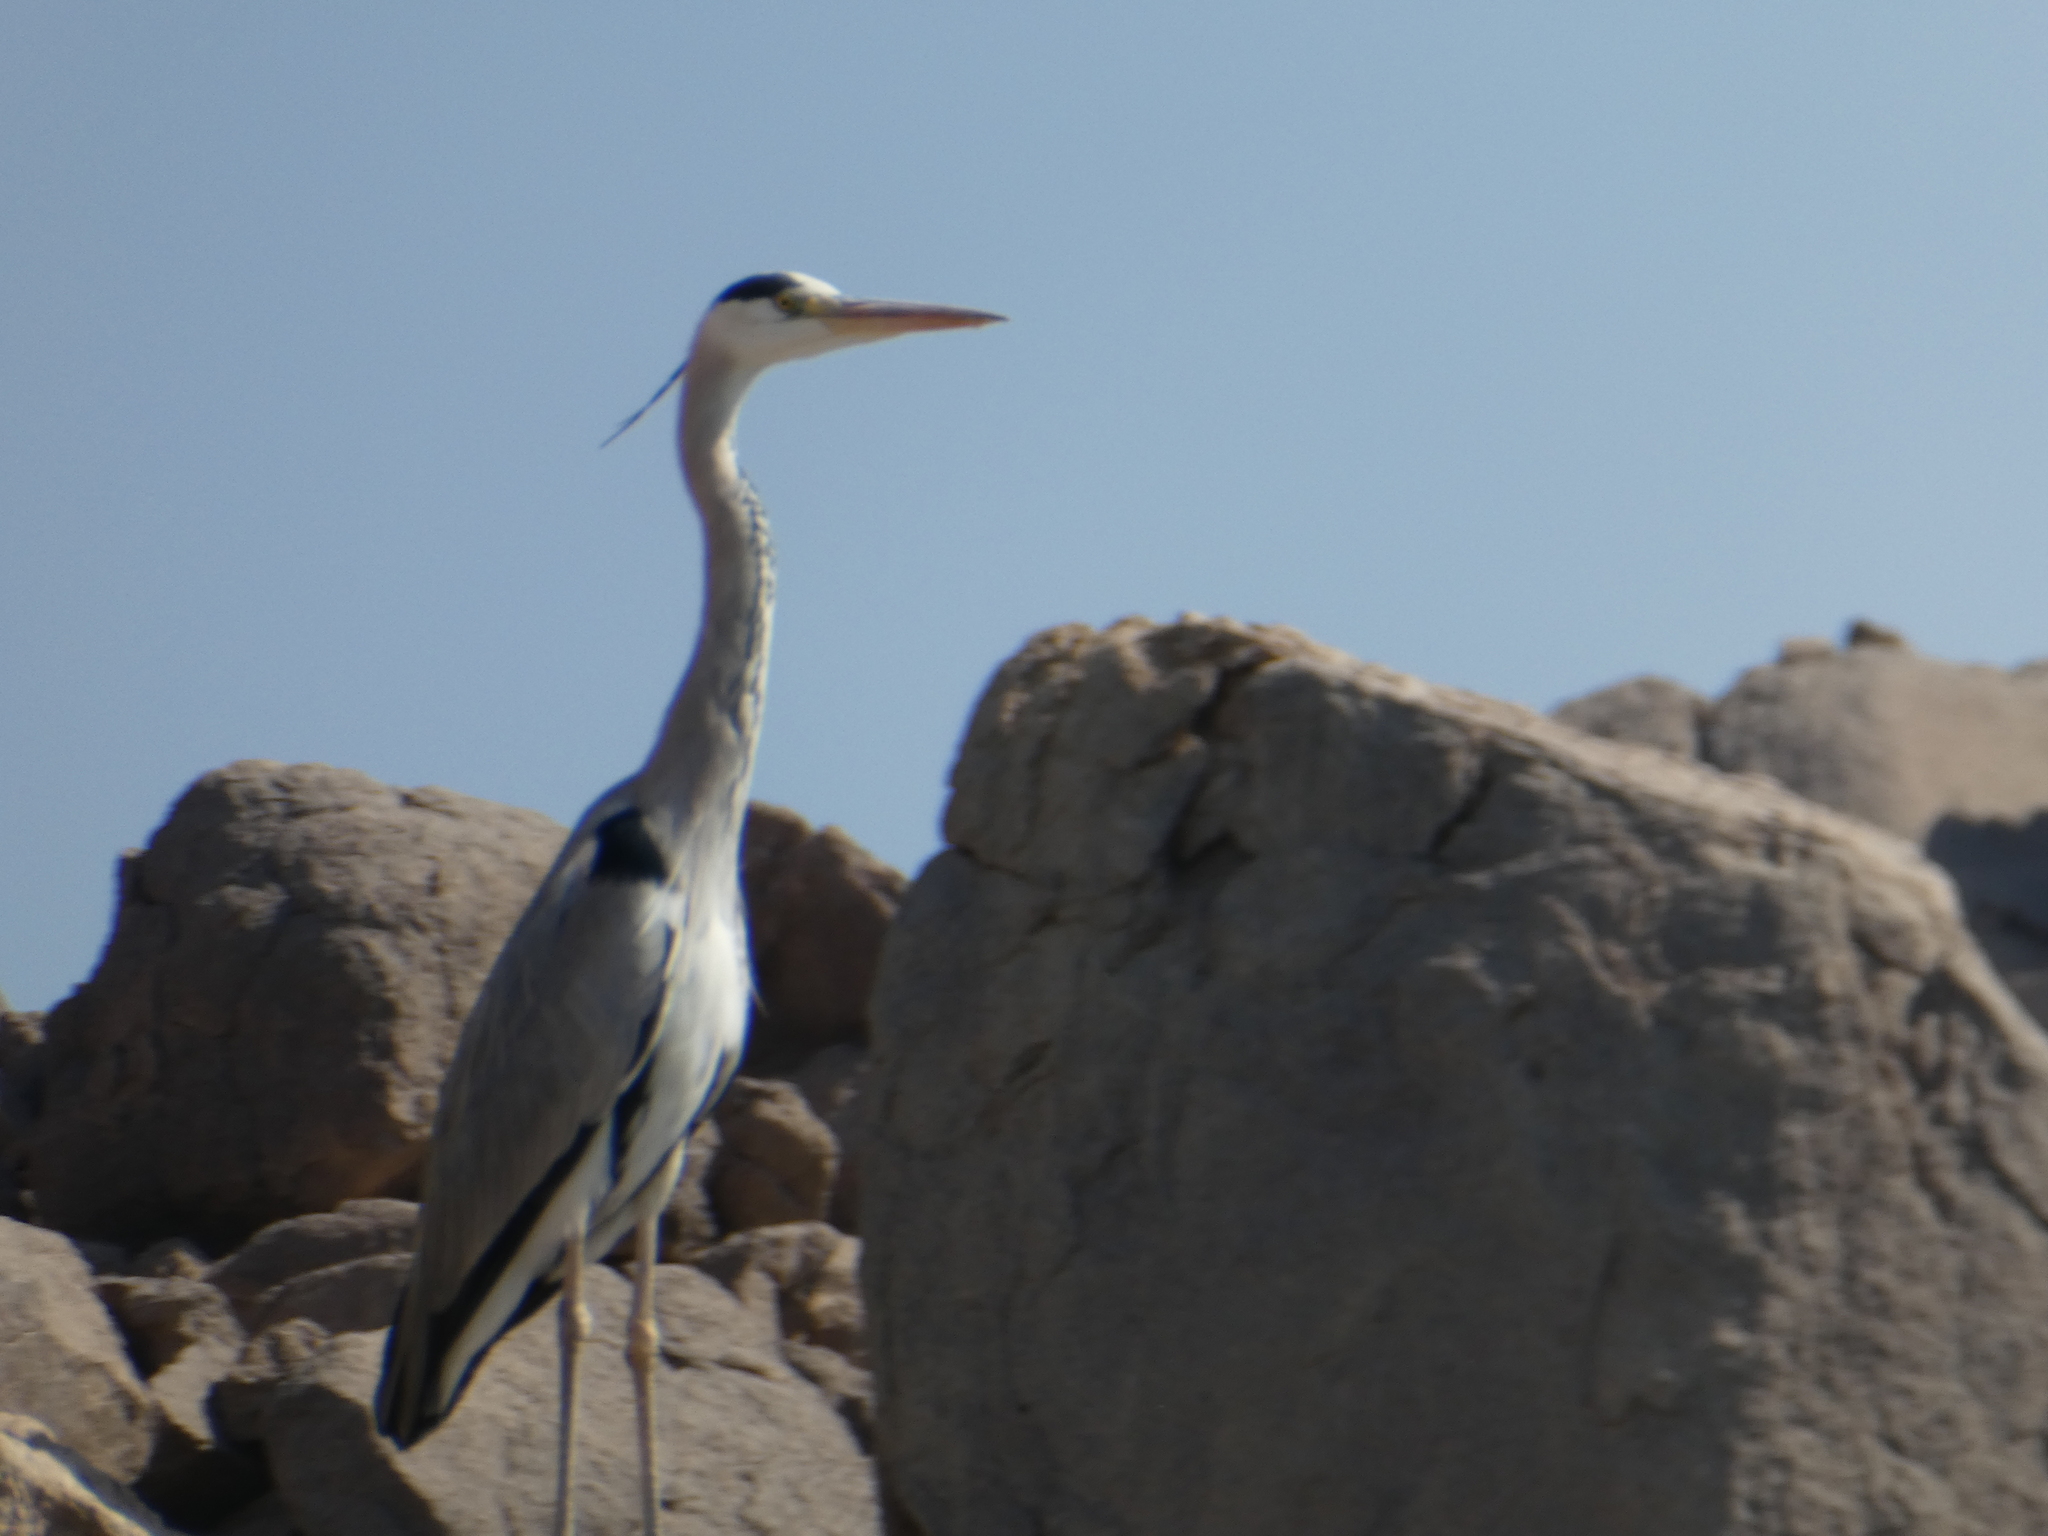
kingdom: Animalia
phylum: Chordata
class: Aves
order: Pelecaniformes
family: Ardeidae
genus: Ardea
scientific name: Ardea cinerea
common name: Grey heron
